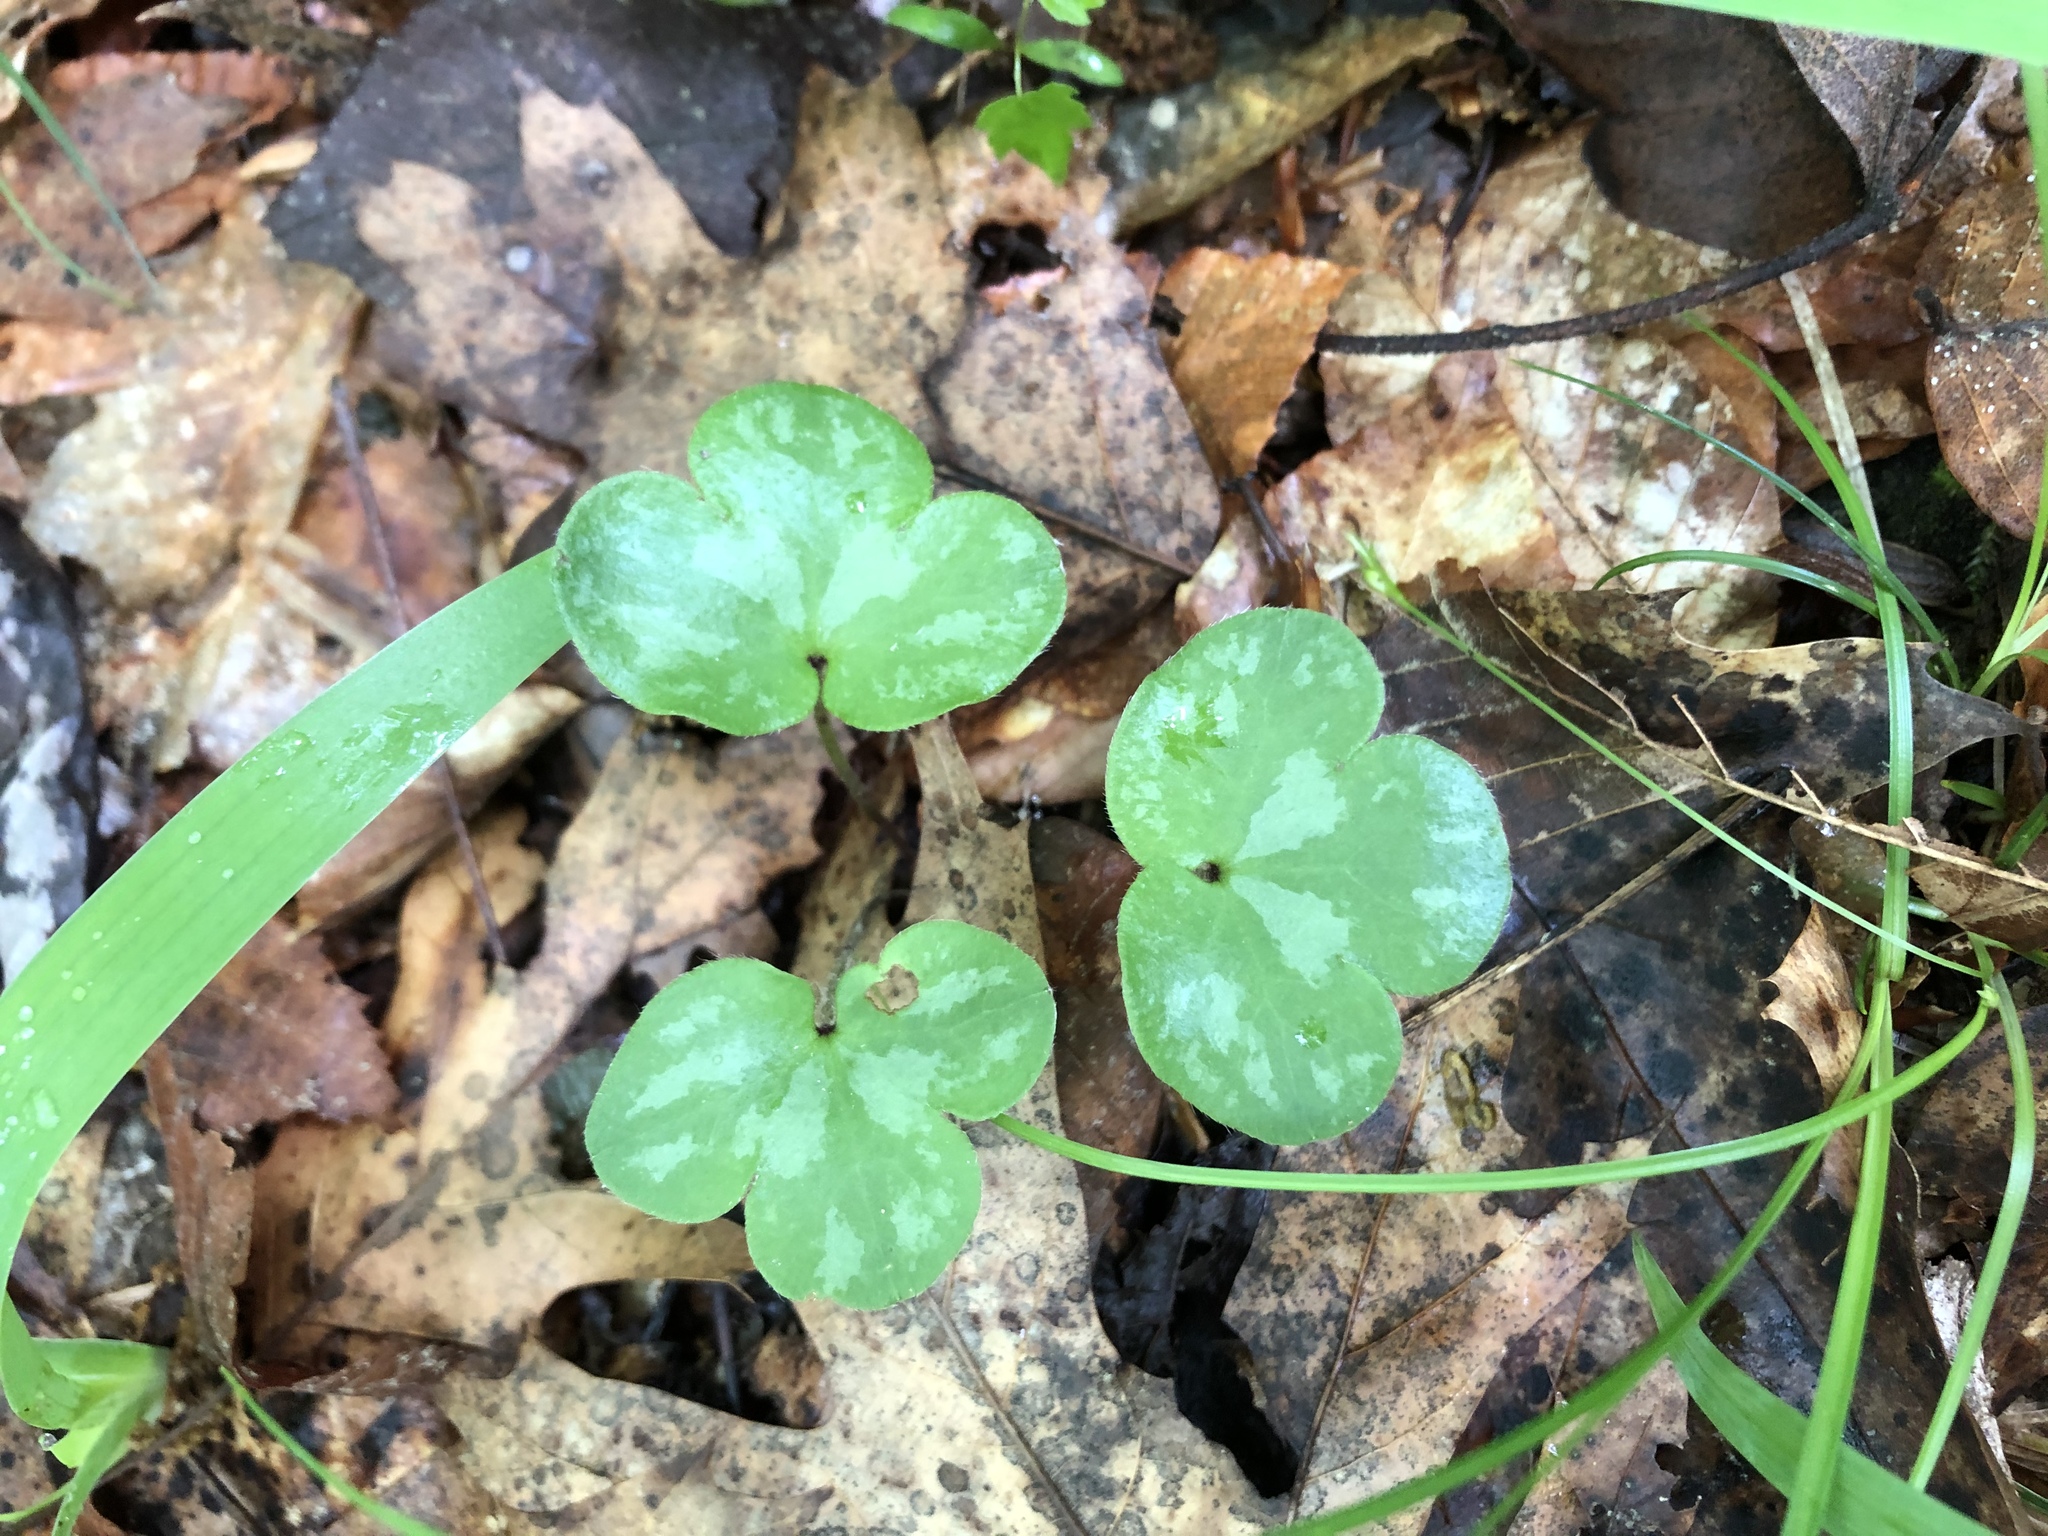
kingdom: Plantae
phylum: Tracheophyta
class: Magnoliopsida
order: Ranunculales
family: Ranunculaceae
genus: Hepatica
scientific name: Hepatica americana
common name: American hepatica
